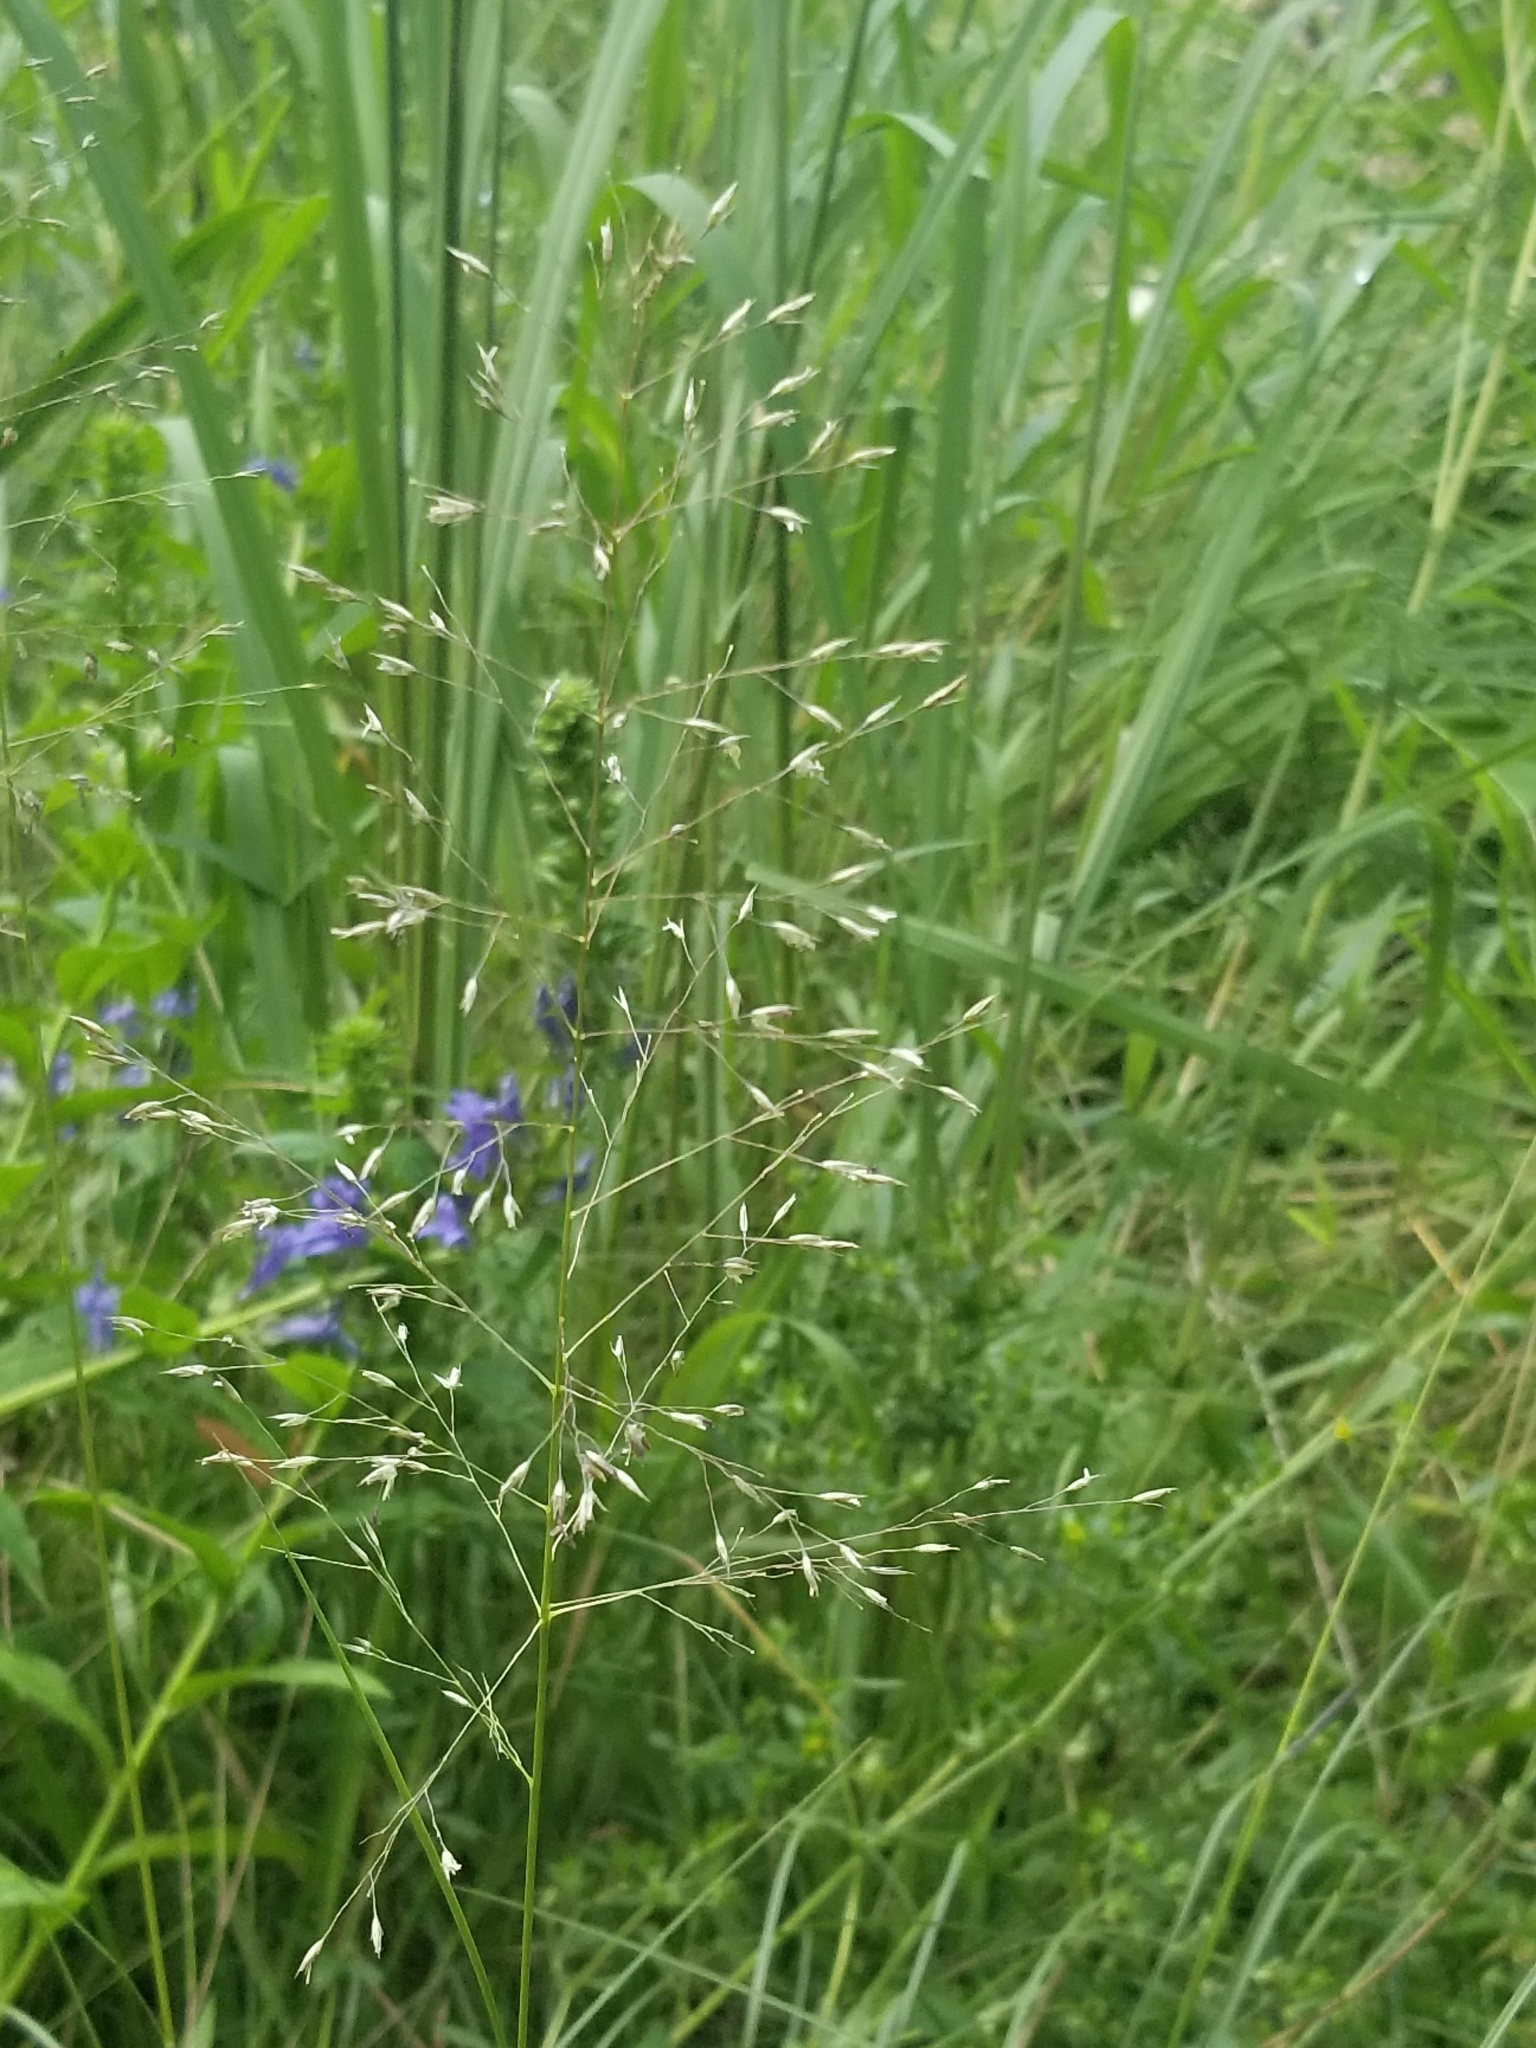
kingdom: Plantae
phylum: Tracheophyta
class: Liliopsida
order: Poales
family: Poaceae
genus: Sporobolus
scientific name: Sporobolus heterolepis
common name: Prairie dropseed
